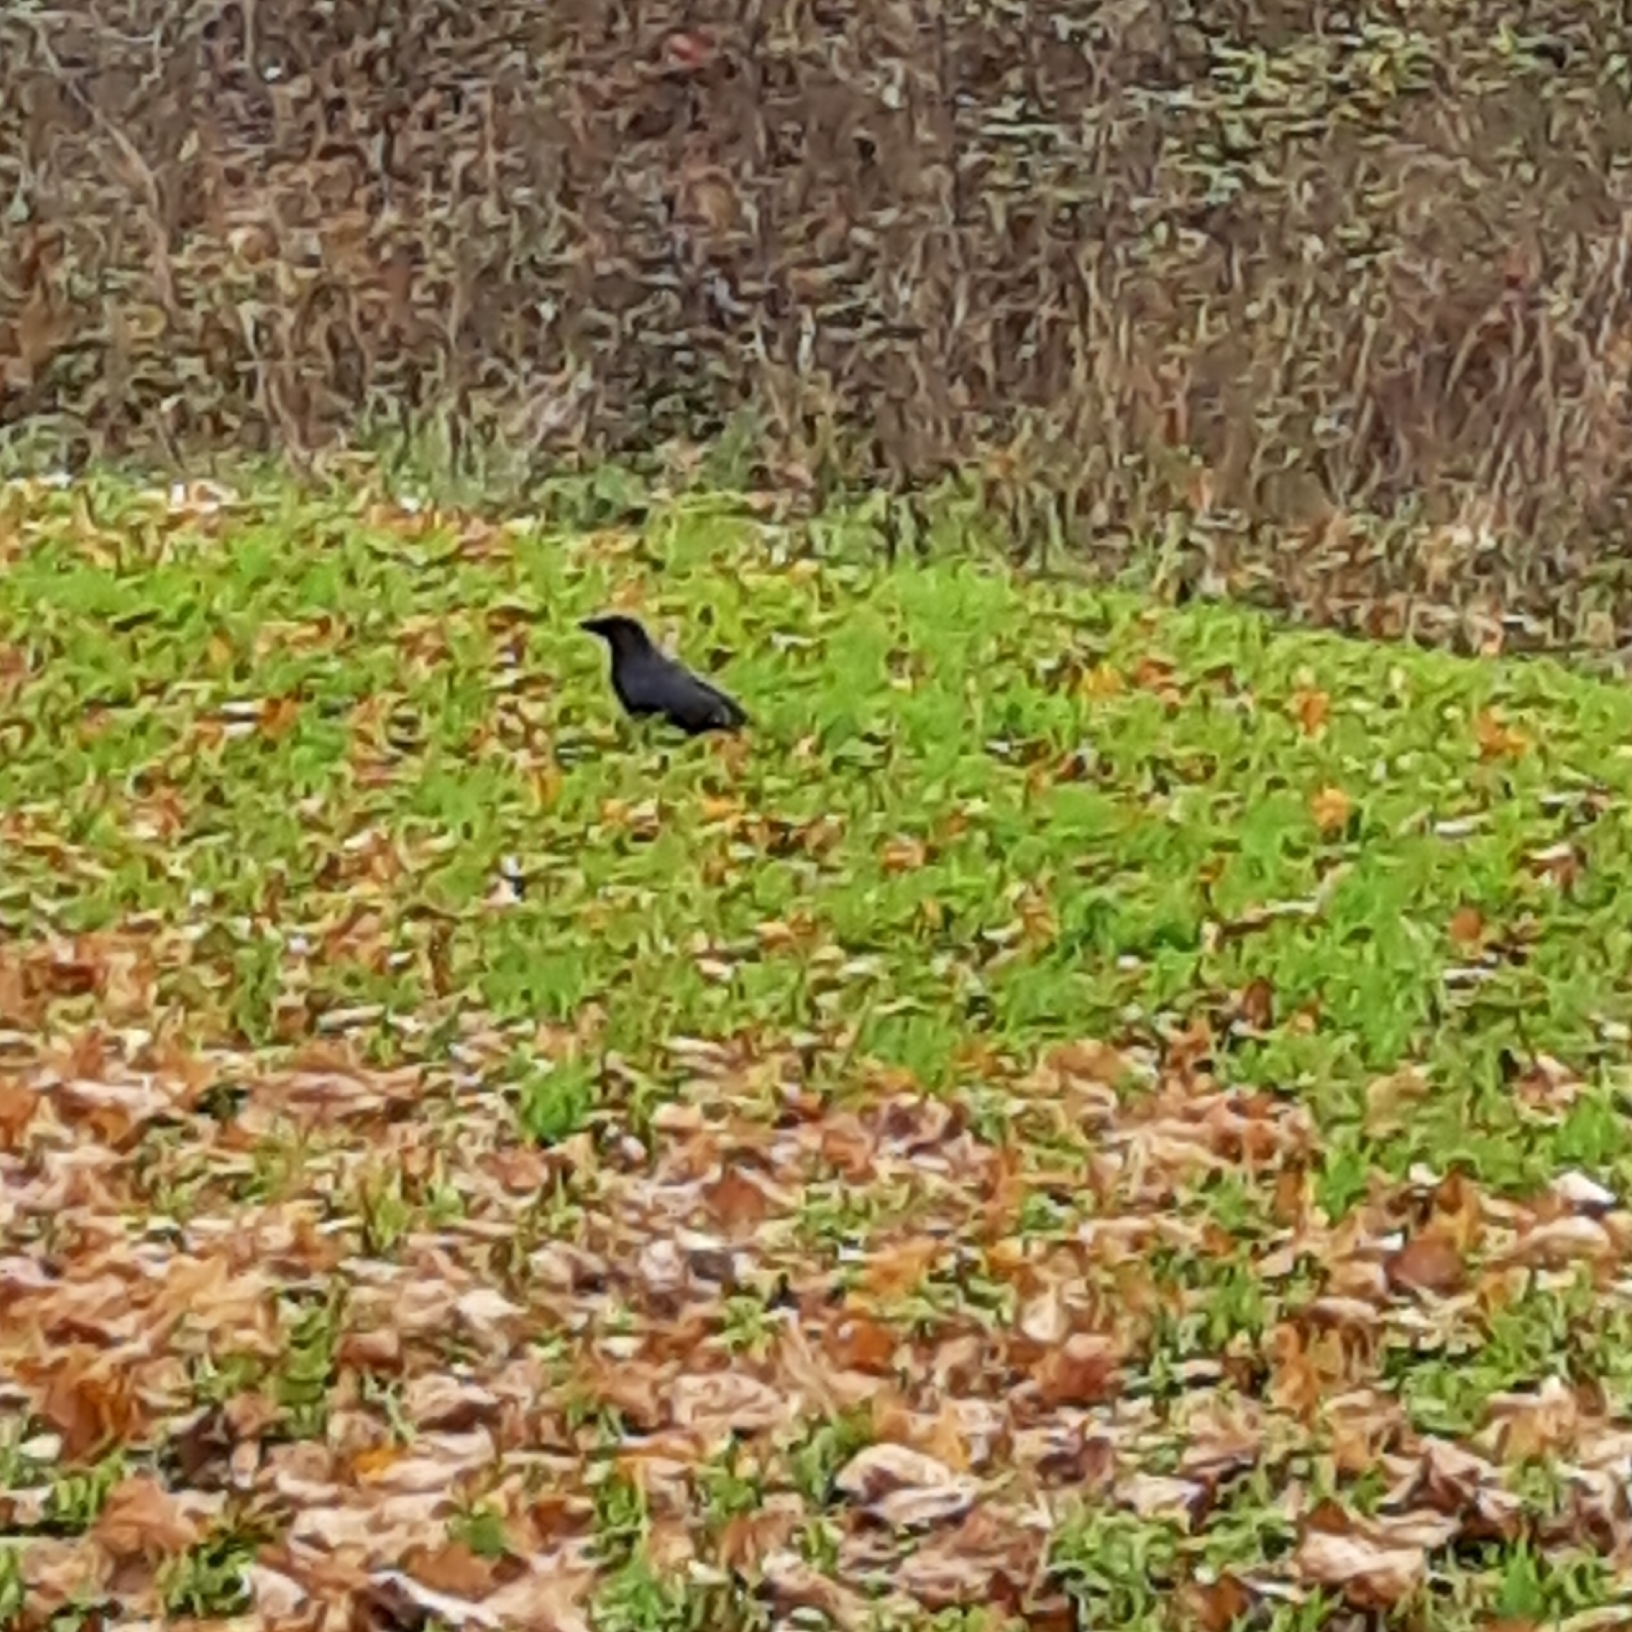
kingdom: Animalia
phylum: Chordata
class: Aves
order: Passeriformes
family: Corvidae
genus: Corvus
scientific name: Corvus corone
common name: Carrion crow
